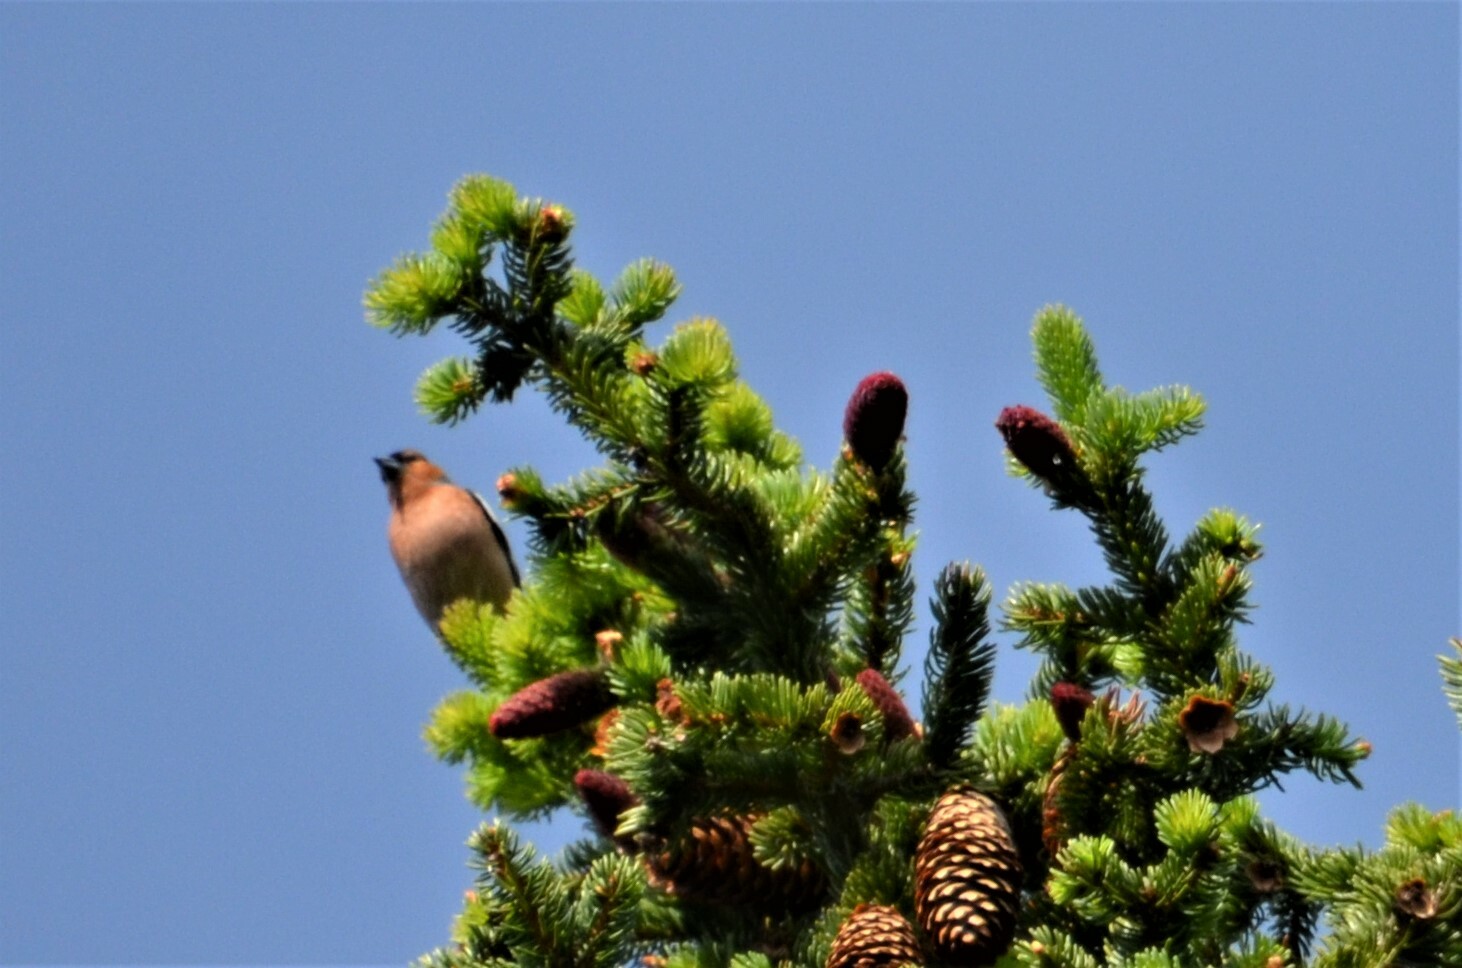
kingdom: Animalia
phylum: Chordata
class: Aves
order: Passeriformes
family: Fringillidae
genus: Fringilla
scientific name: Fringilla coelebs
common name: Common chaffinch
